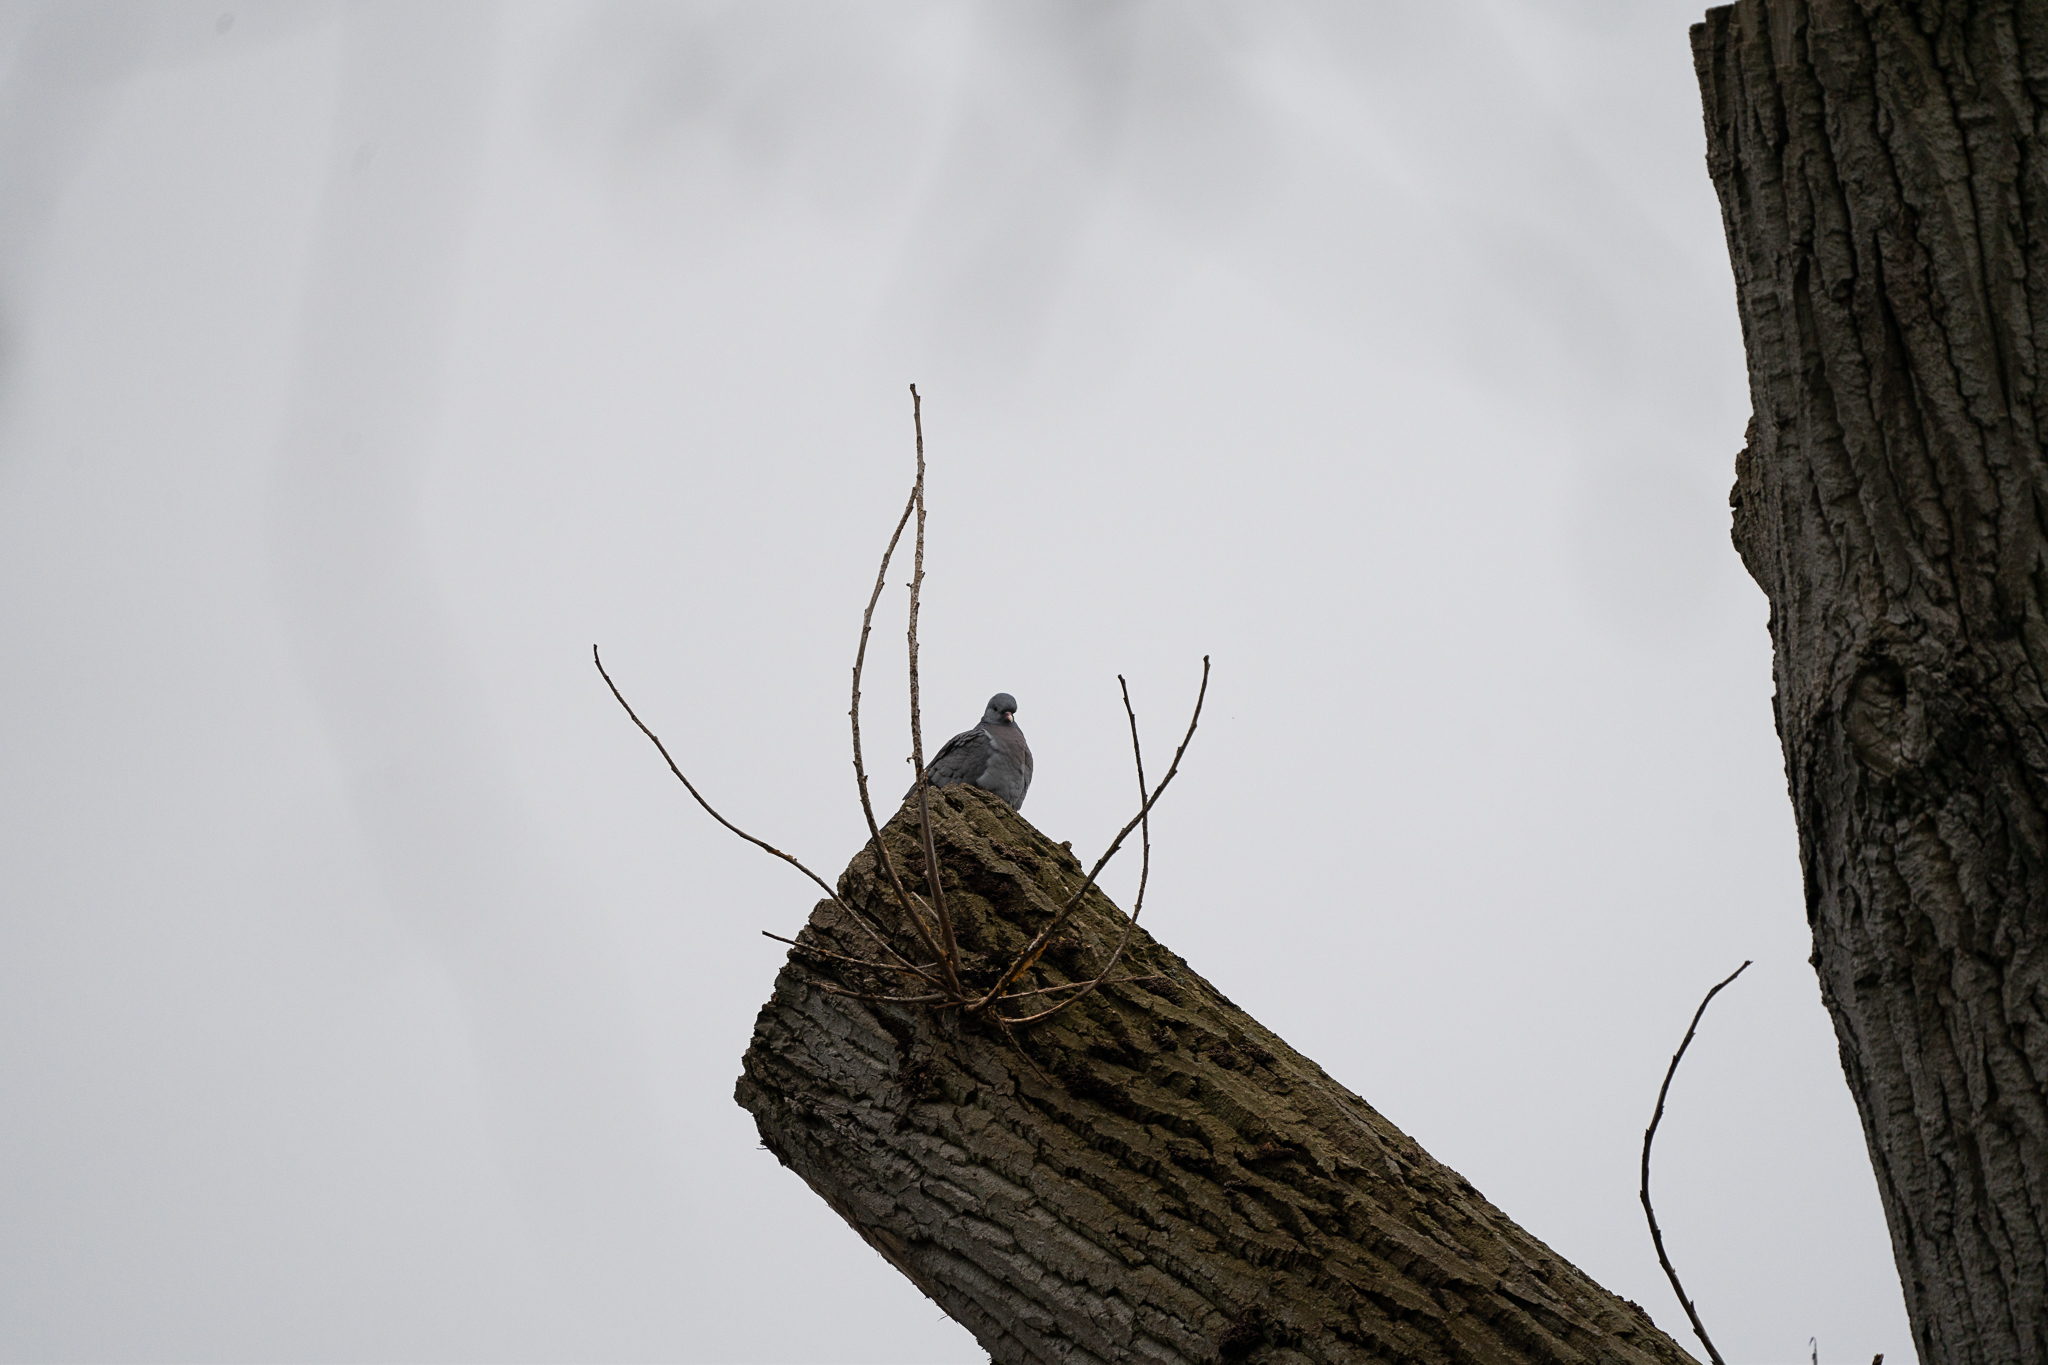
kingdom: Animalia
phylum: Chordata
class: Aves
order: Columbiformes
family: Columbidae
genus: Columba
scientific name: Columba oenas
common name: Stock dove
